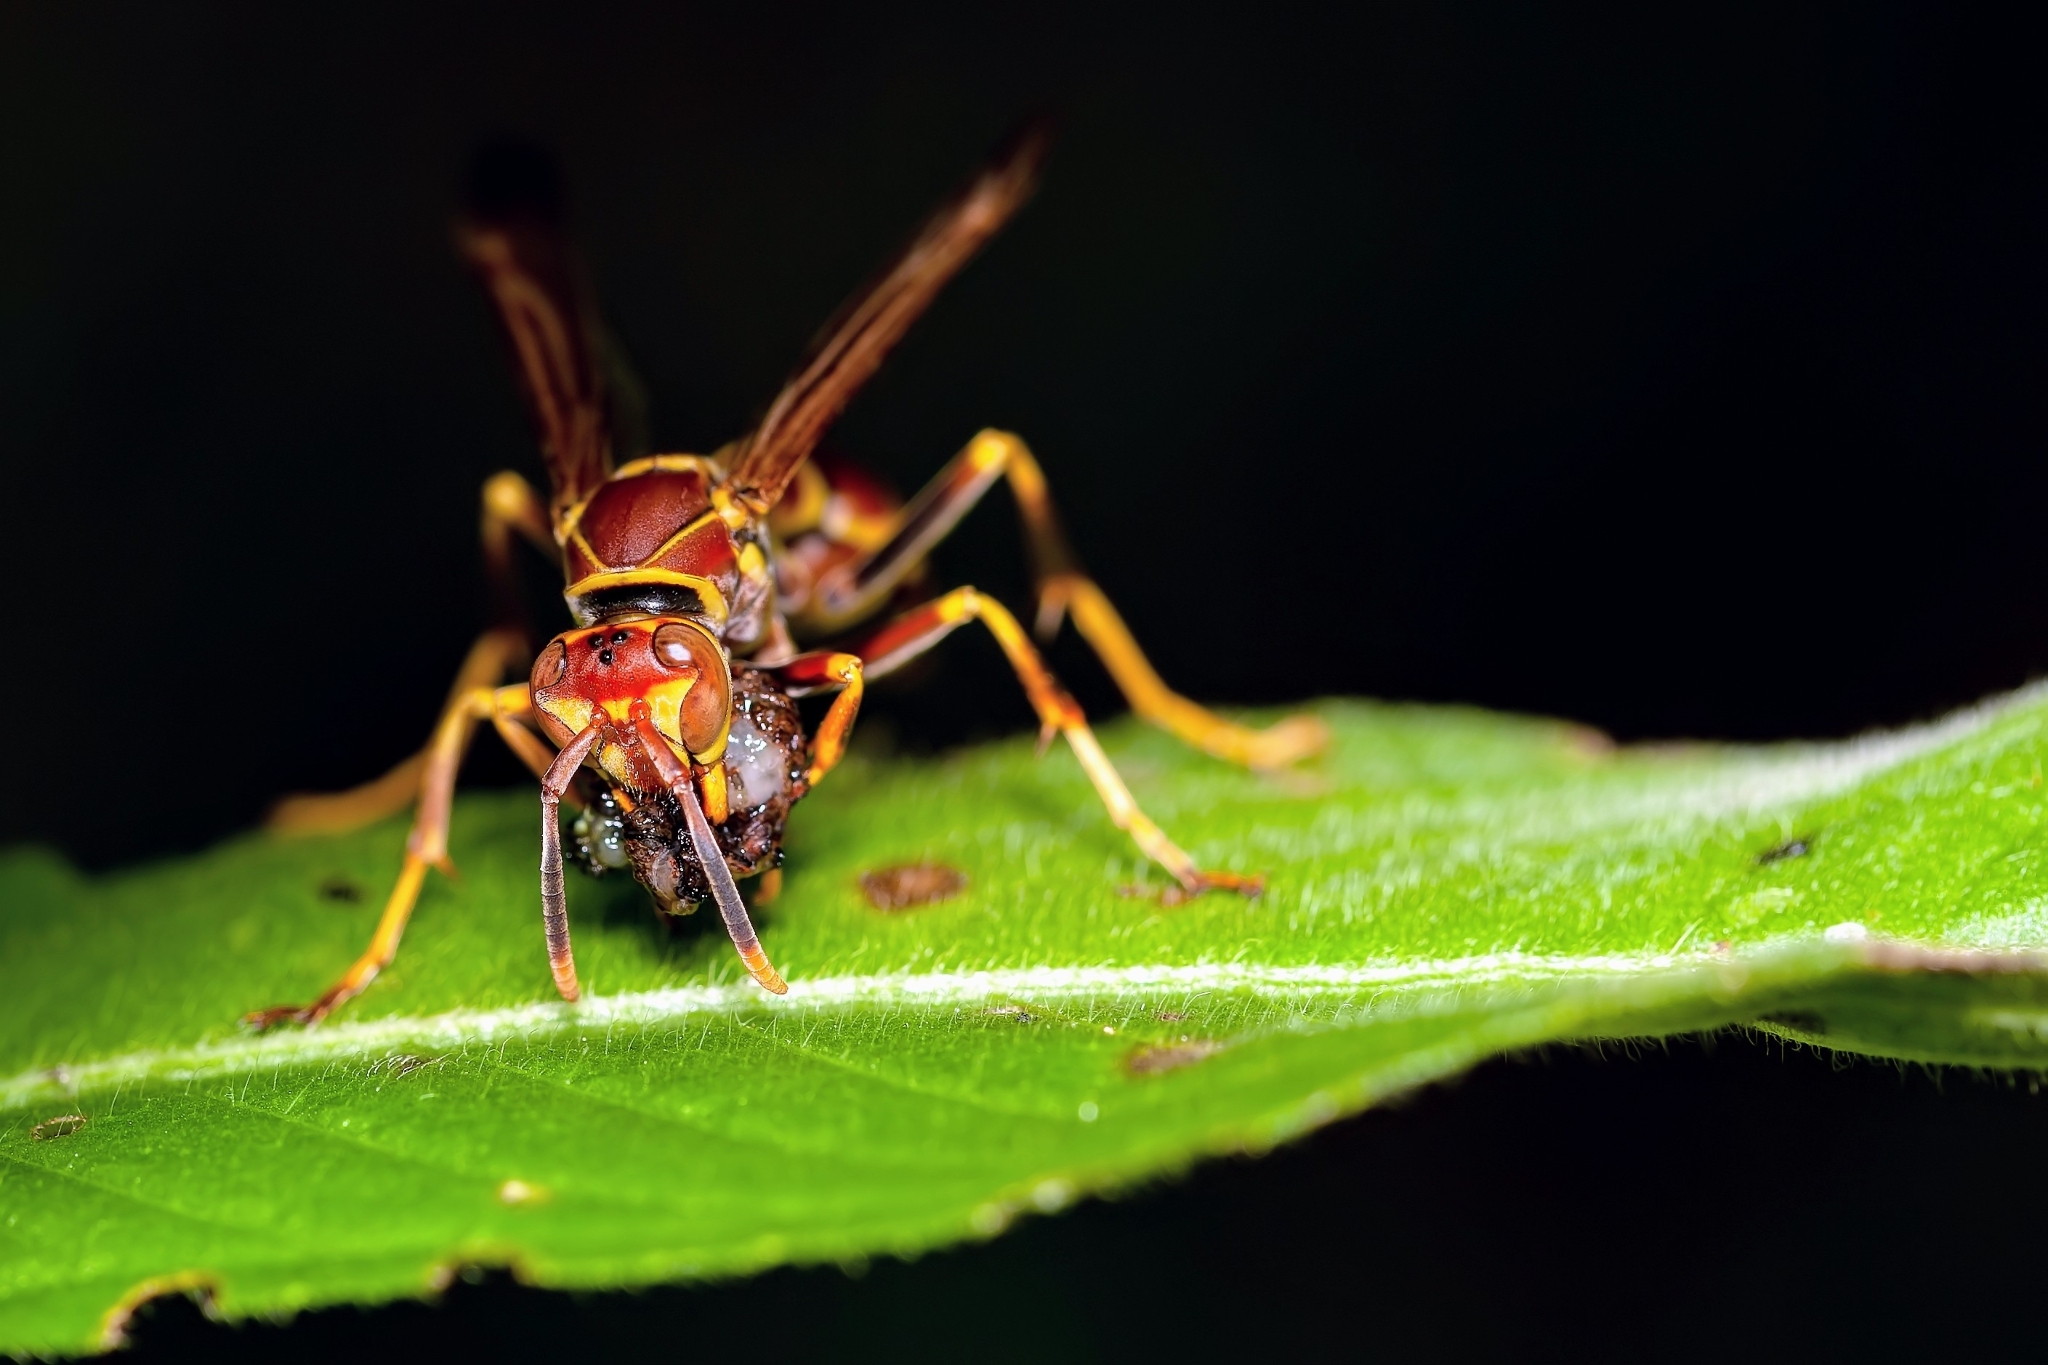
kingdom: Animalia
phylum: Arthropoda
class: Insecta
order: Hymenoptera
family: Eumenidae
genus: Polistes
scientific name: Polistes exclamans
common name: Paper wasp
